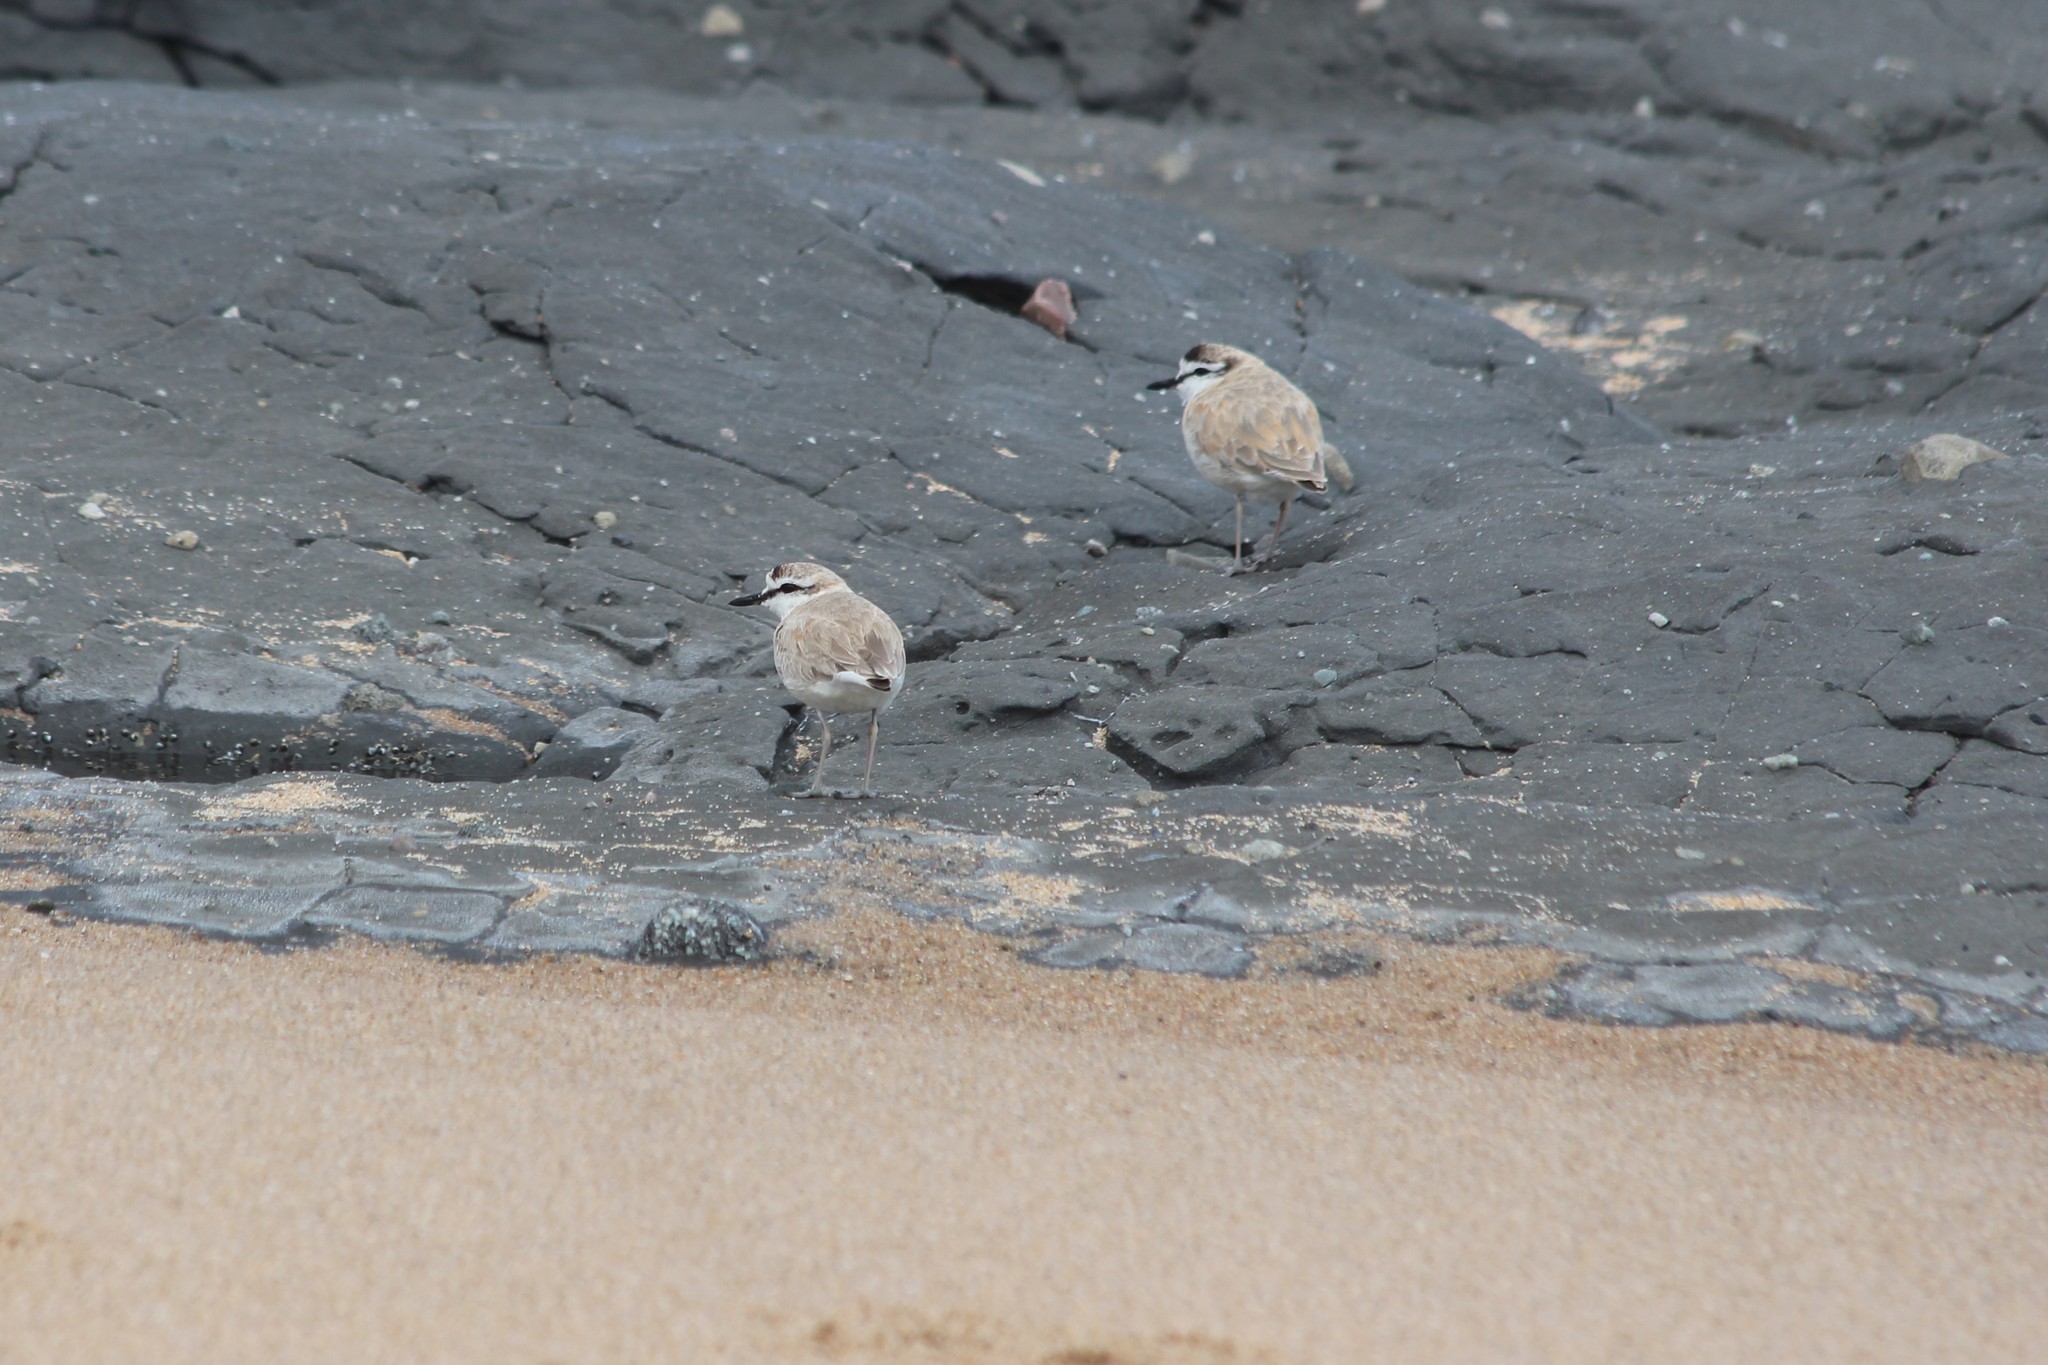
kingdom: Animalia
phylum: Chordata
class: Aves
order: Charadriiformes
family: Charadriidae
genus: Anarhynchus
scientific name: Anarhynchus
